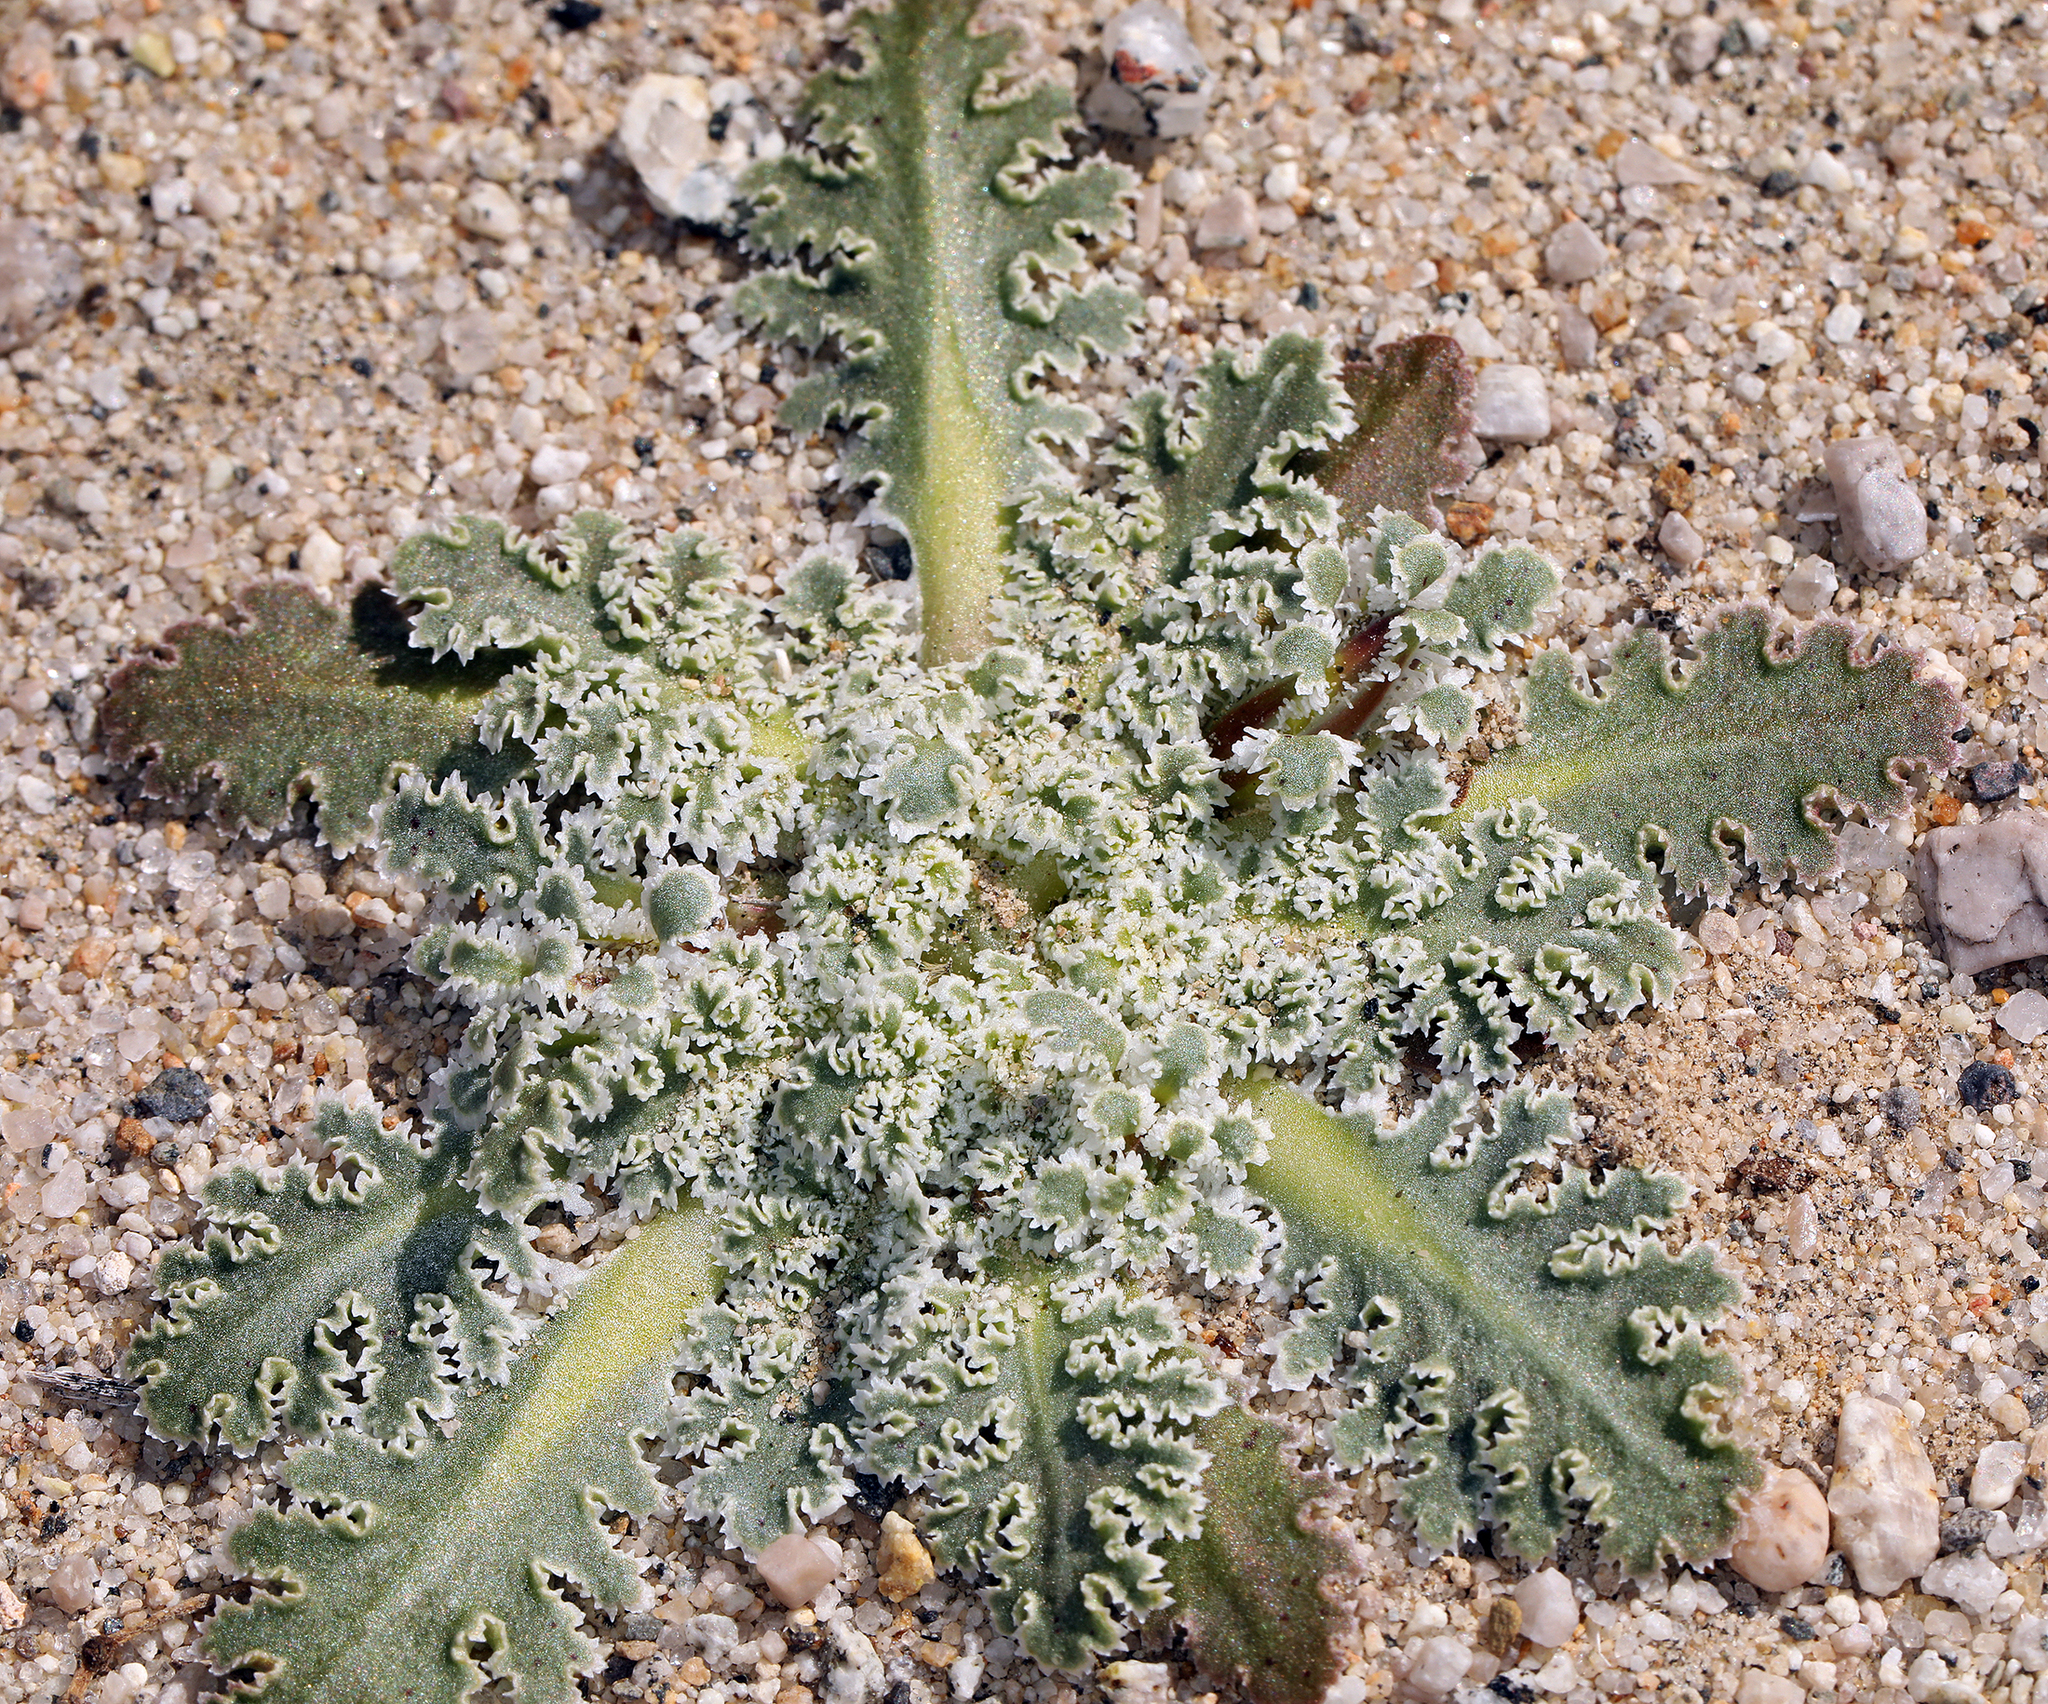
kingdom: Plantae
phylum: Tracheophyta
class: Magnoliopsida
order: Asterales
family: Asteraceae
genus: Glyptopleura
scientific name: Glyptopleura marginata
